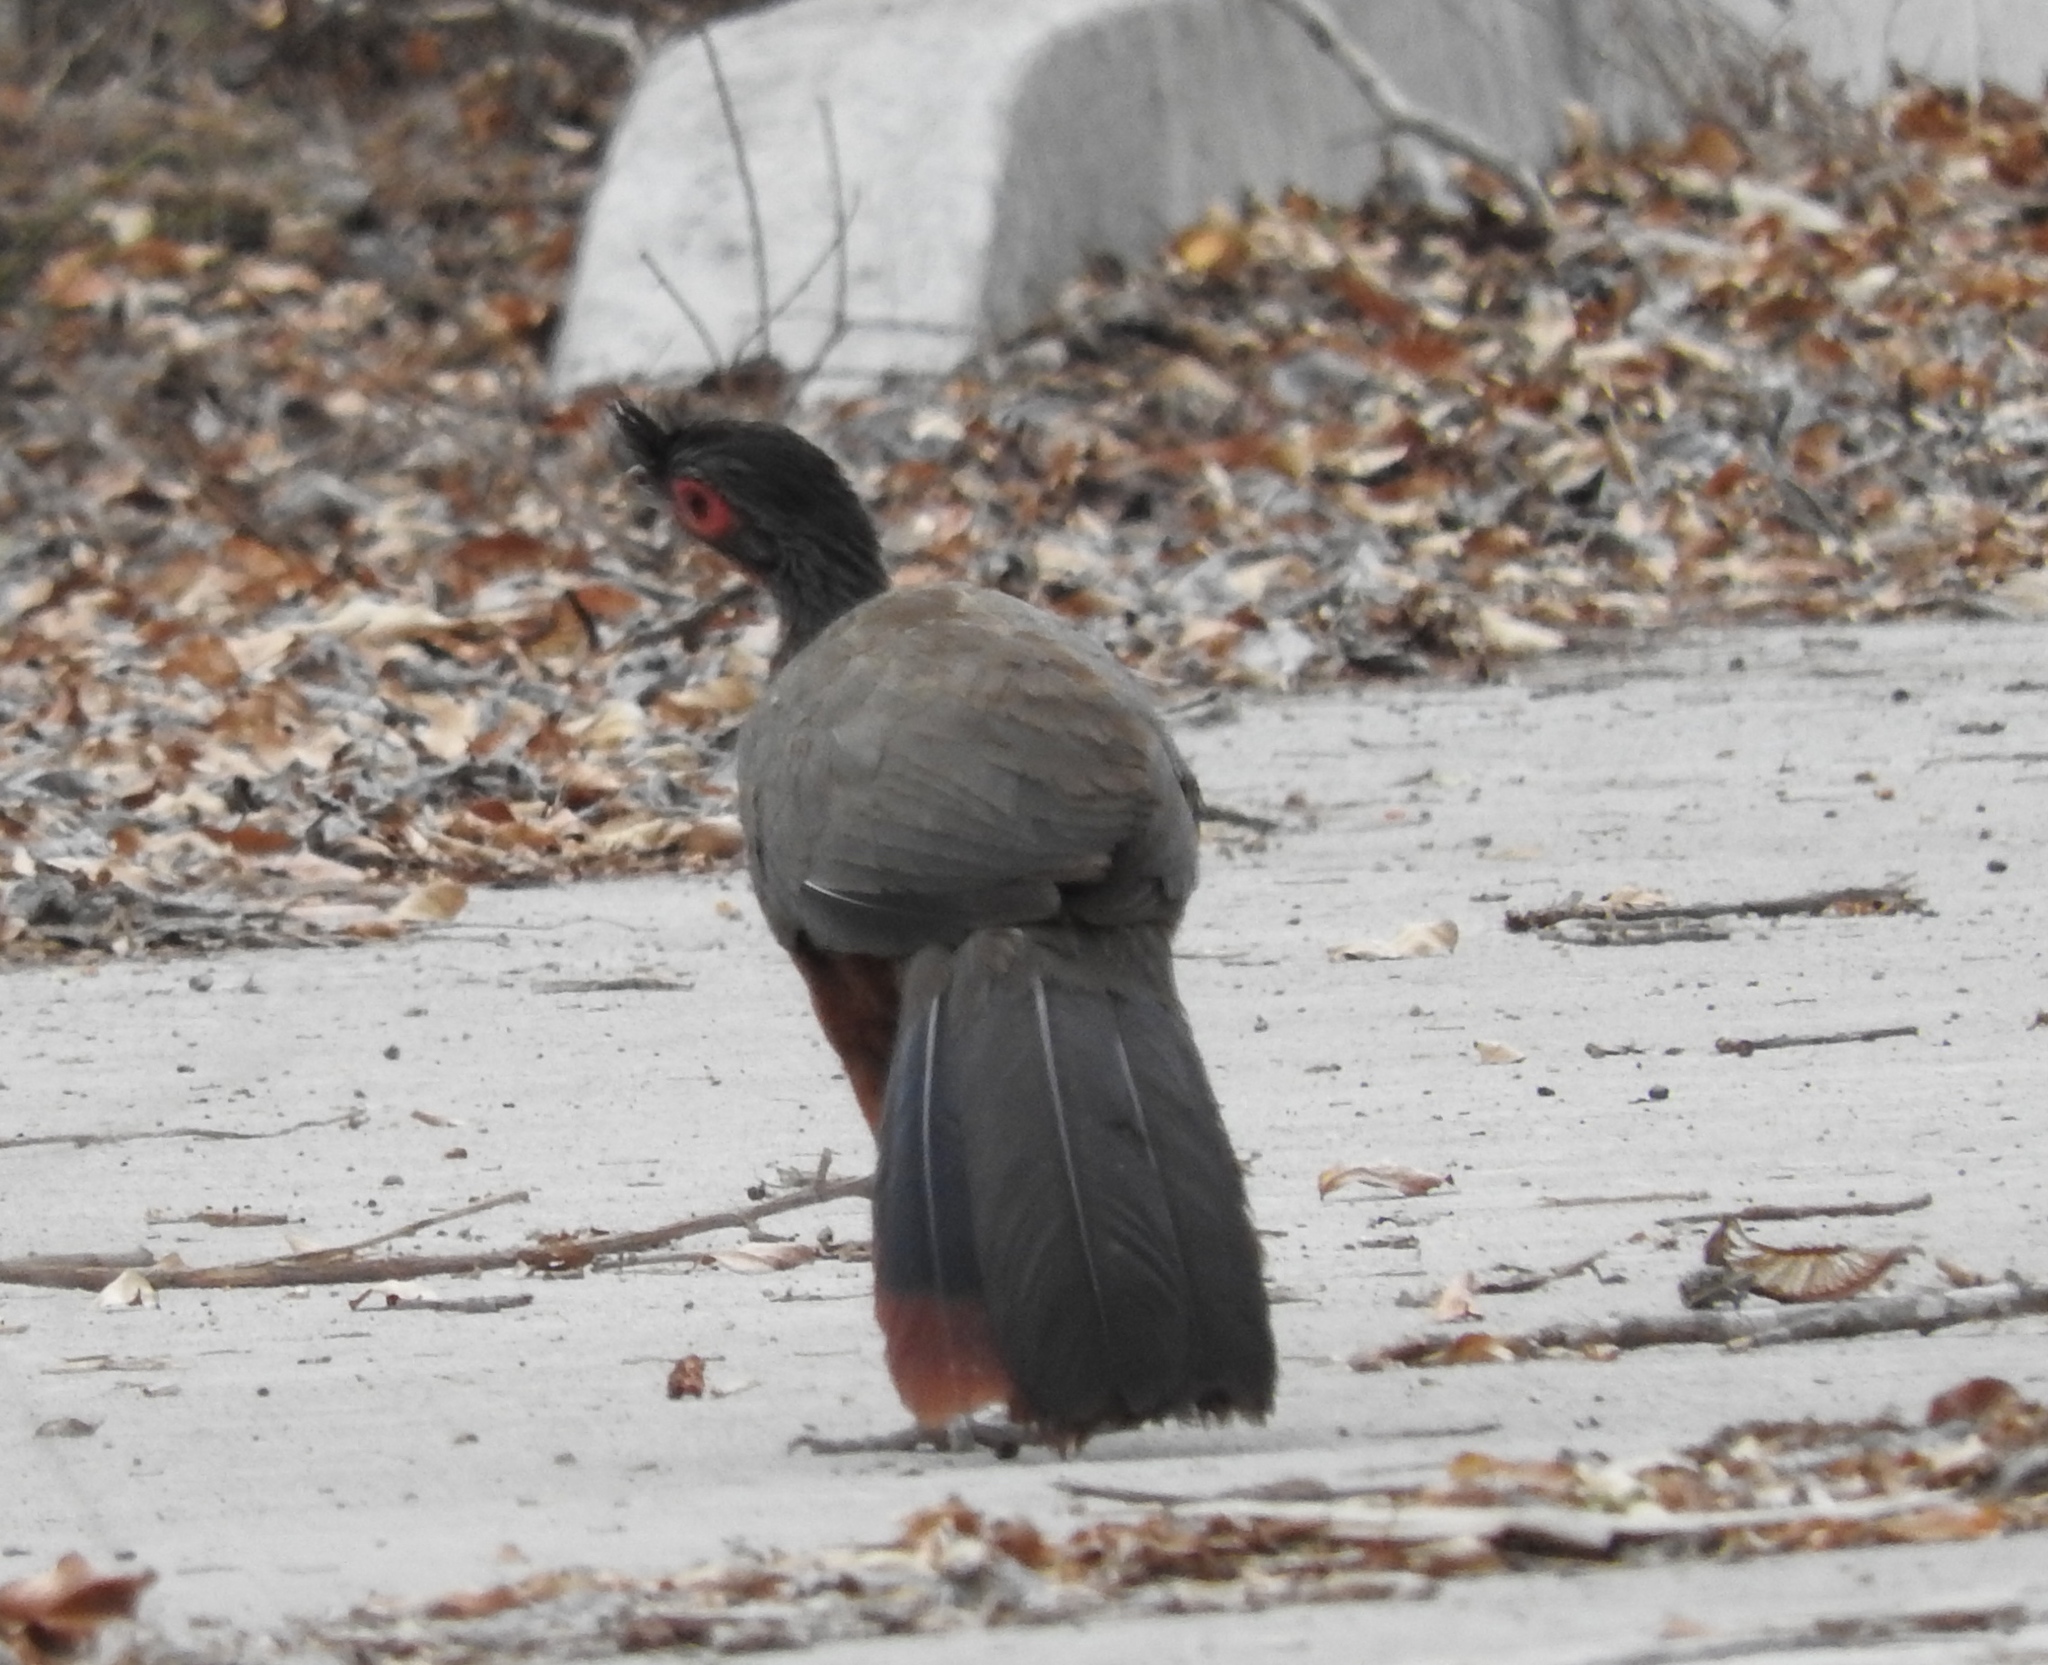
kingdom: Animalia
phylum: Chordata
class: Aves
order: Galliformes
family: Cracidae
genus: Ortalis
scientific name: Ortalis wagleri
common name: Rufous-bellied chachalaca
